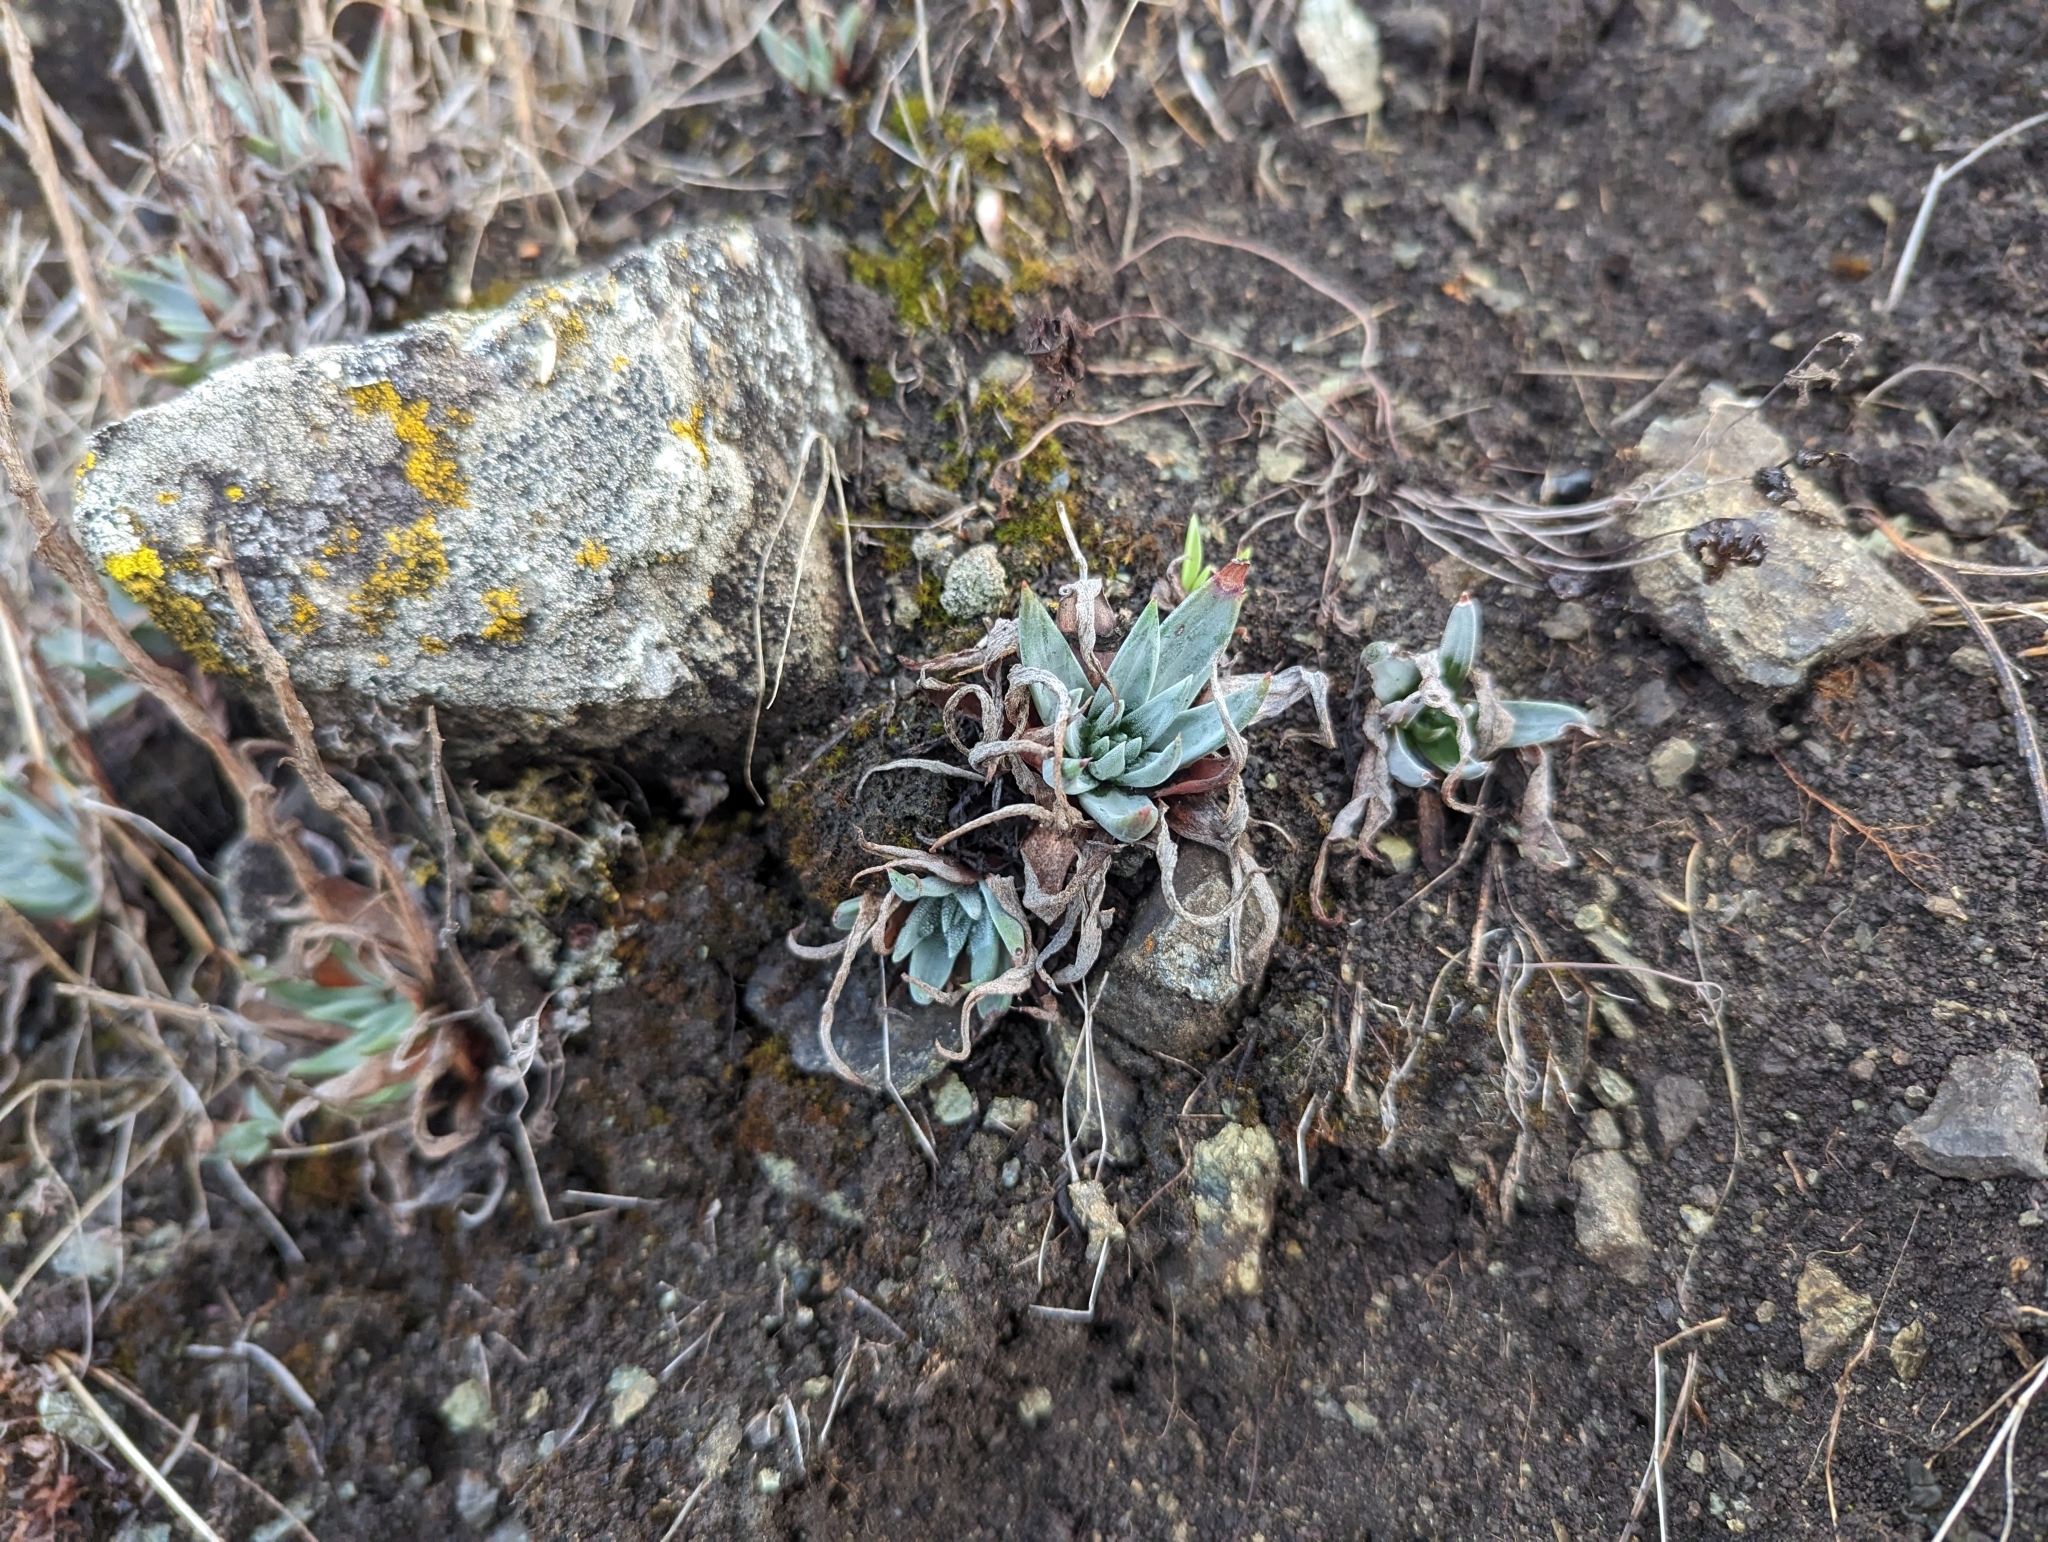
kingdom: Plantae
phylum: Tracheophyta
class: Magnoliopsida
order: Saxifragales
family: Crassulaceae
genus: Dudleya
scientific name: Dudleya abramsii
